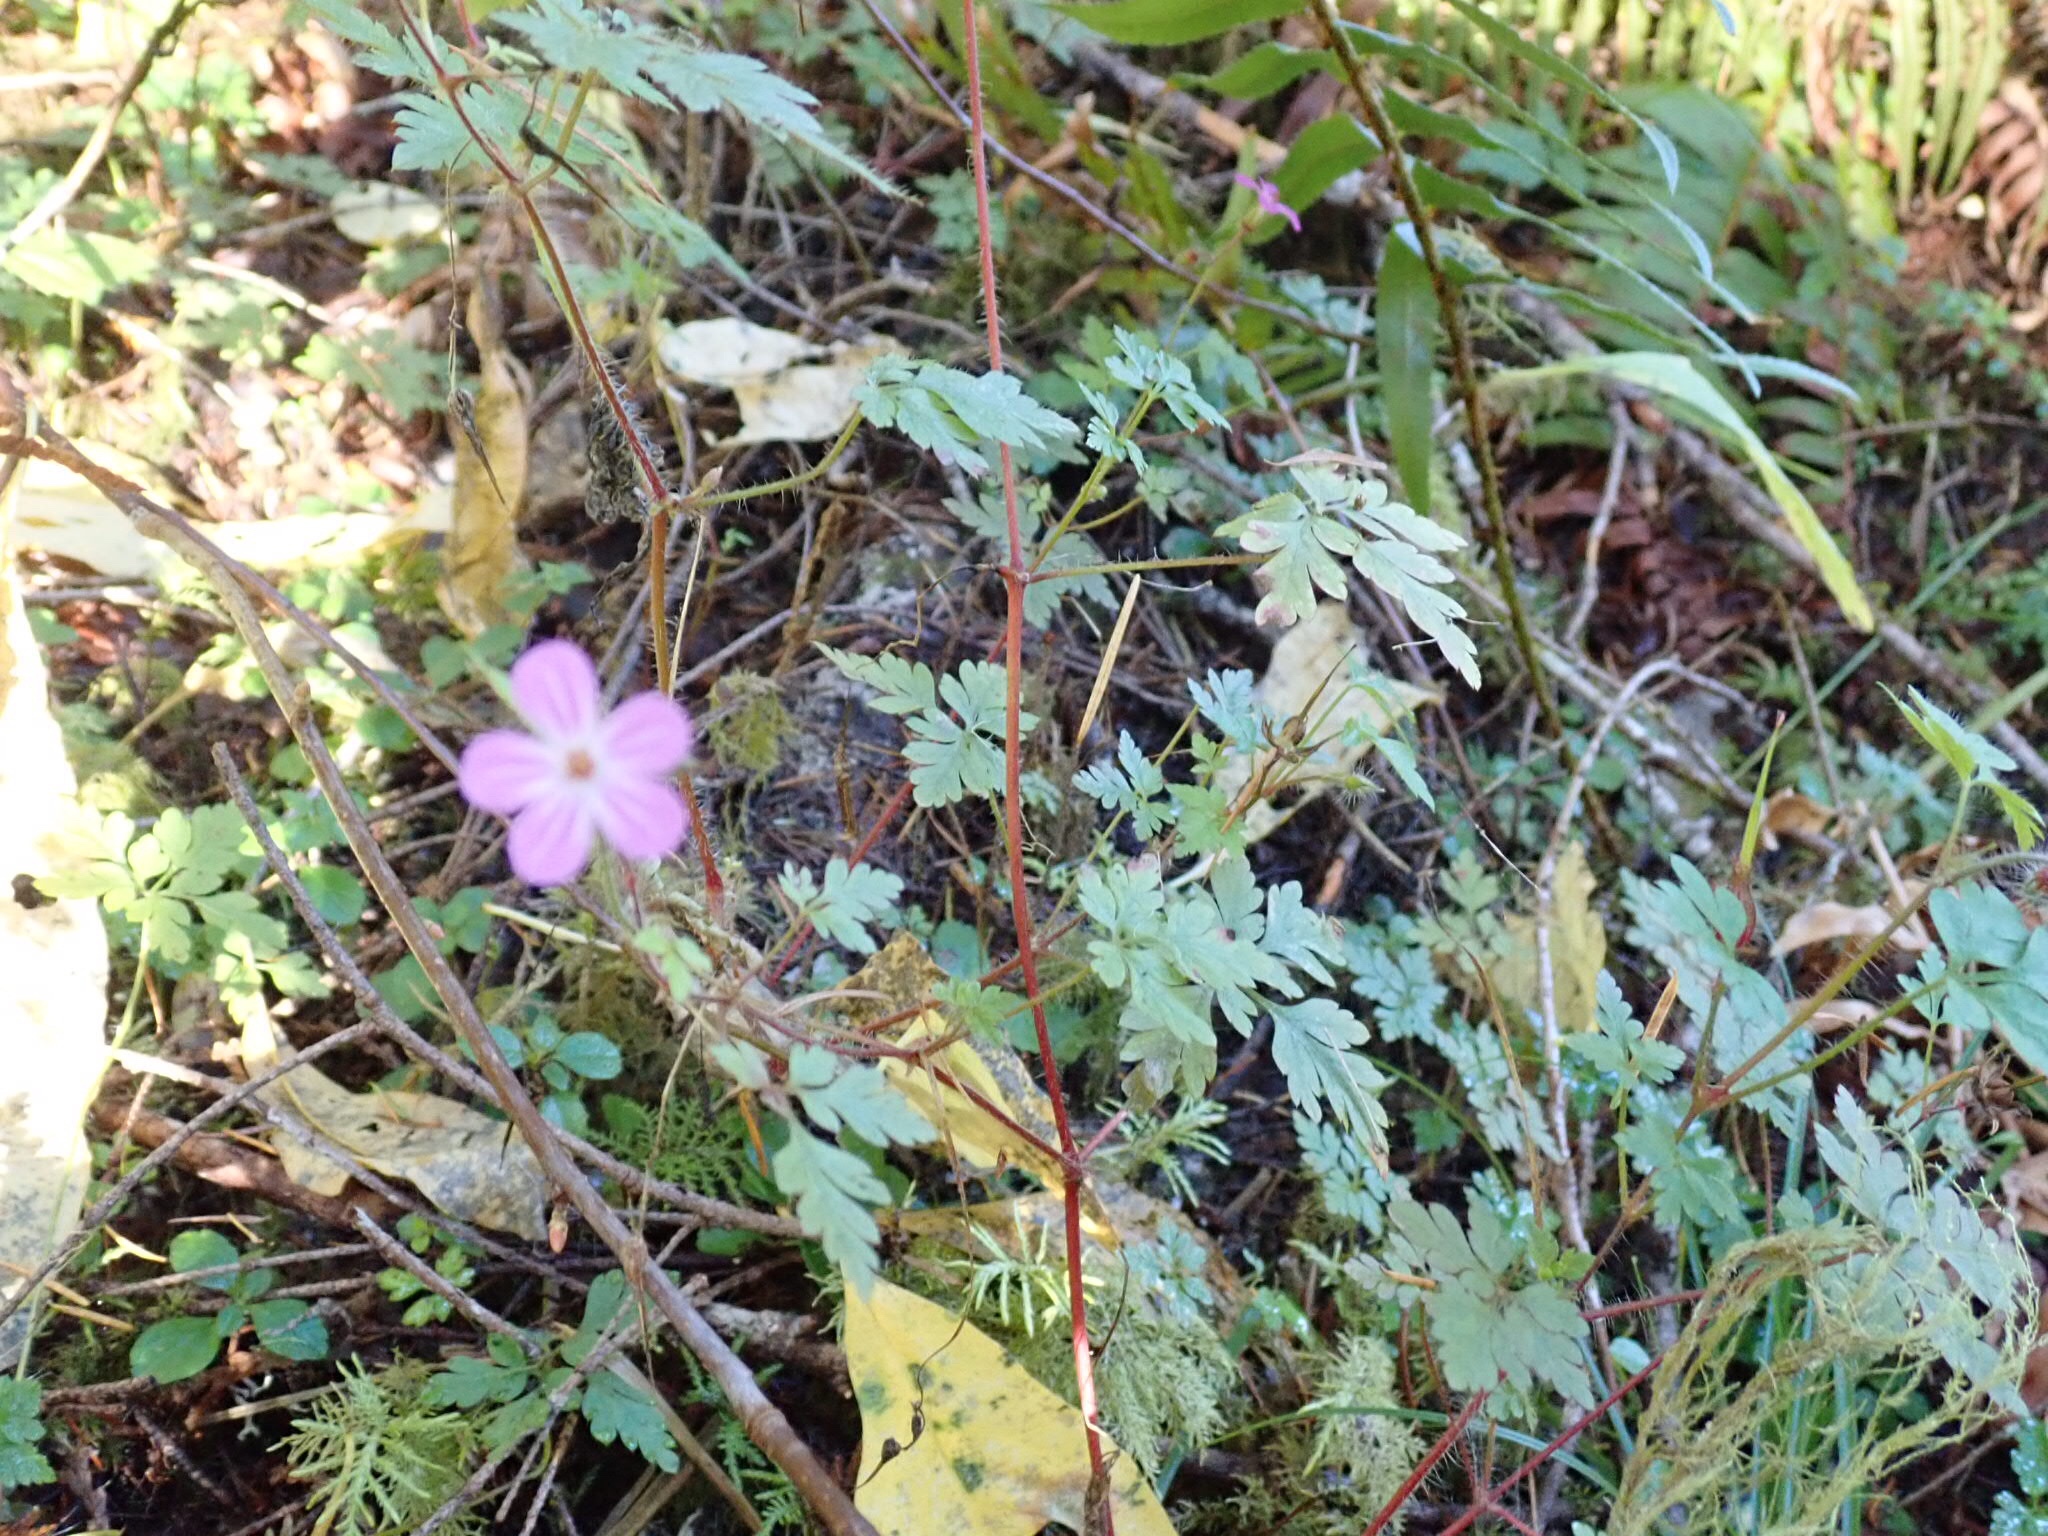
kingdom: Plantae
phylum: Tracheophyta
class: Magnoliopsida
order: Geraniales
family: Geraniaceae
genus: Geranium
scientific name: Geranium robertianum
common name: Herb-robert
